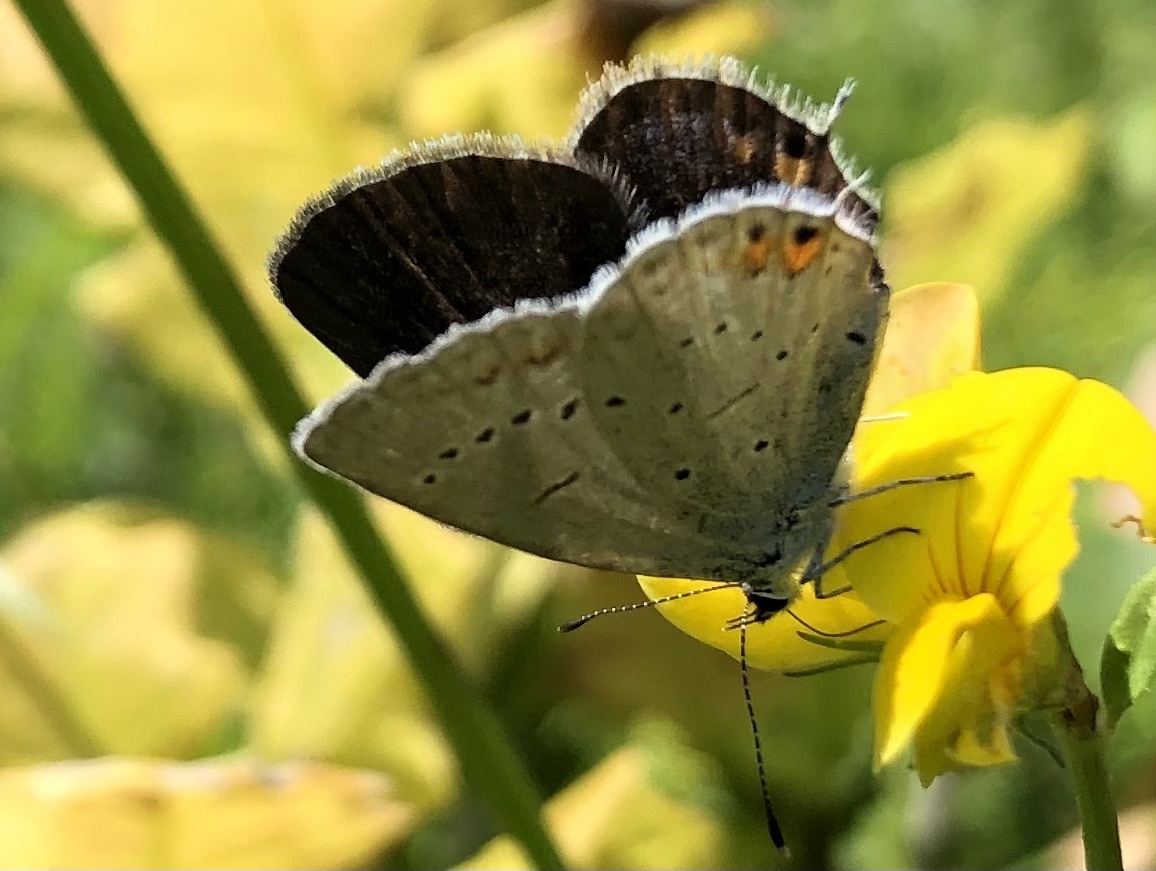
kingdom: Animalia
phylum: Arthropoda
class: Insecta
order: Lepidoptera
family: Lycaenidae
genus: Elkalyce
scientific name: Elkalyce argiades
